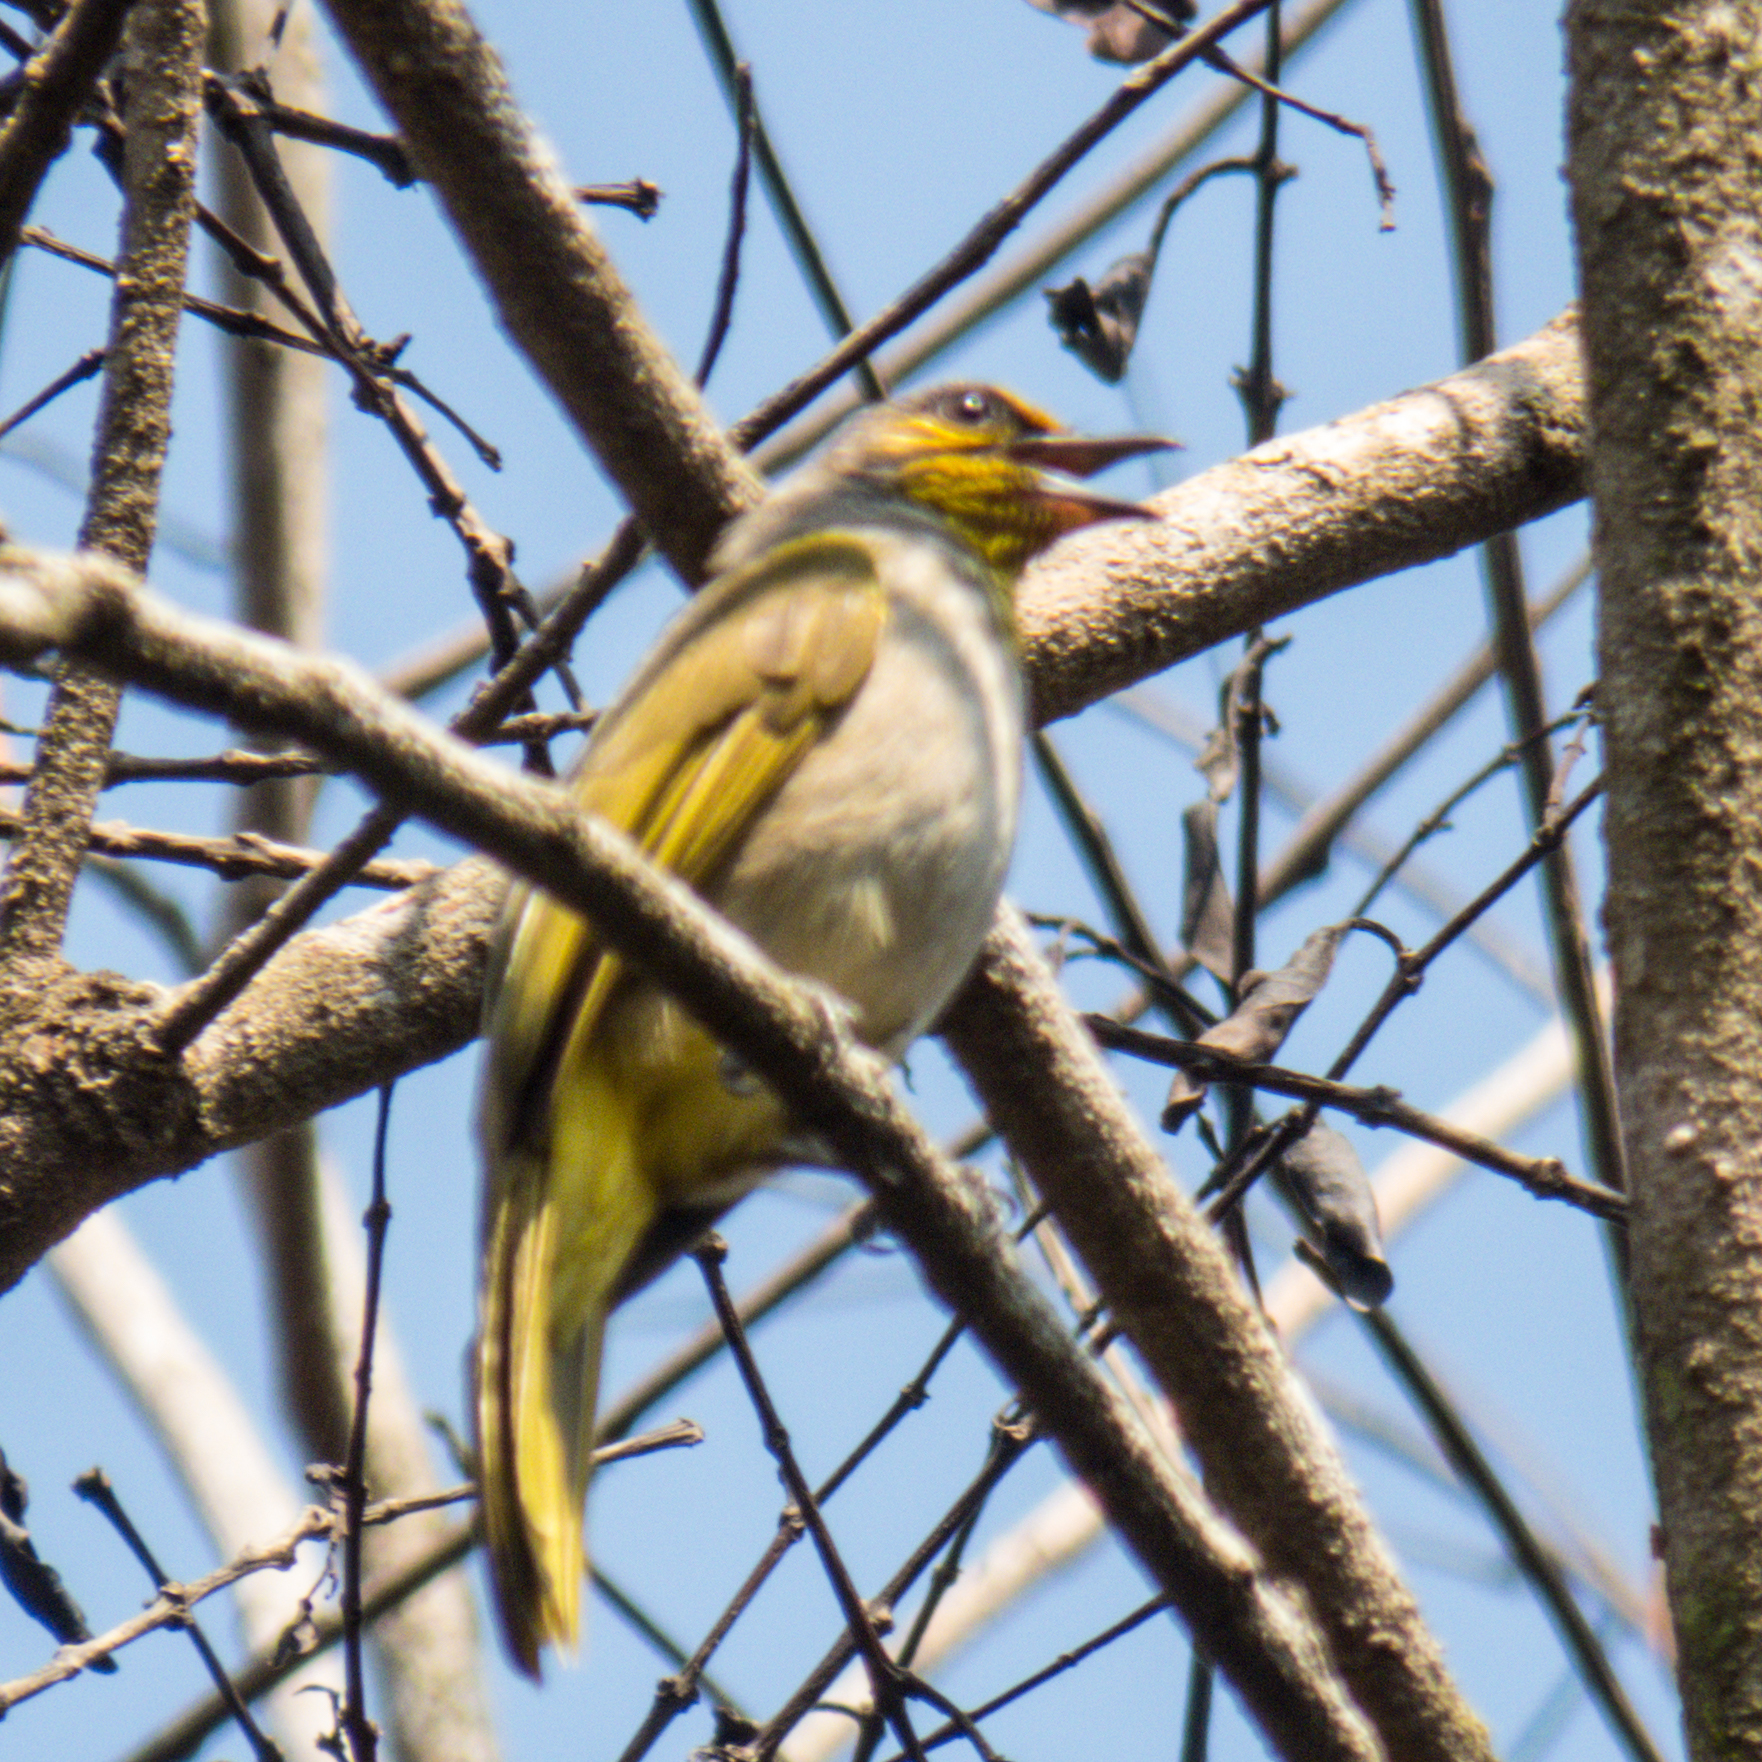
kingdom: Animalia
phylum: Chordata
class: Aves
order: Passeriformes
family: Pycnonotidae
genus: Pycnonotus
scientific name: Pycnonotus finlaysoni
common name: Stripe-throated bulbul
